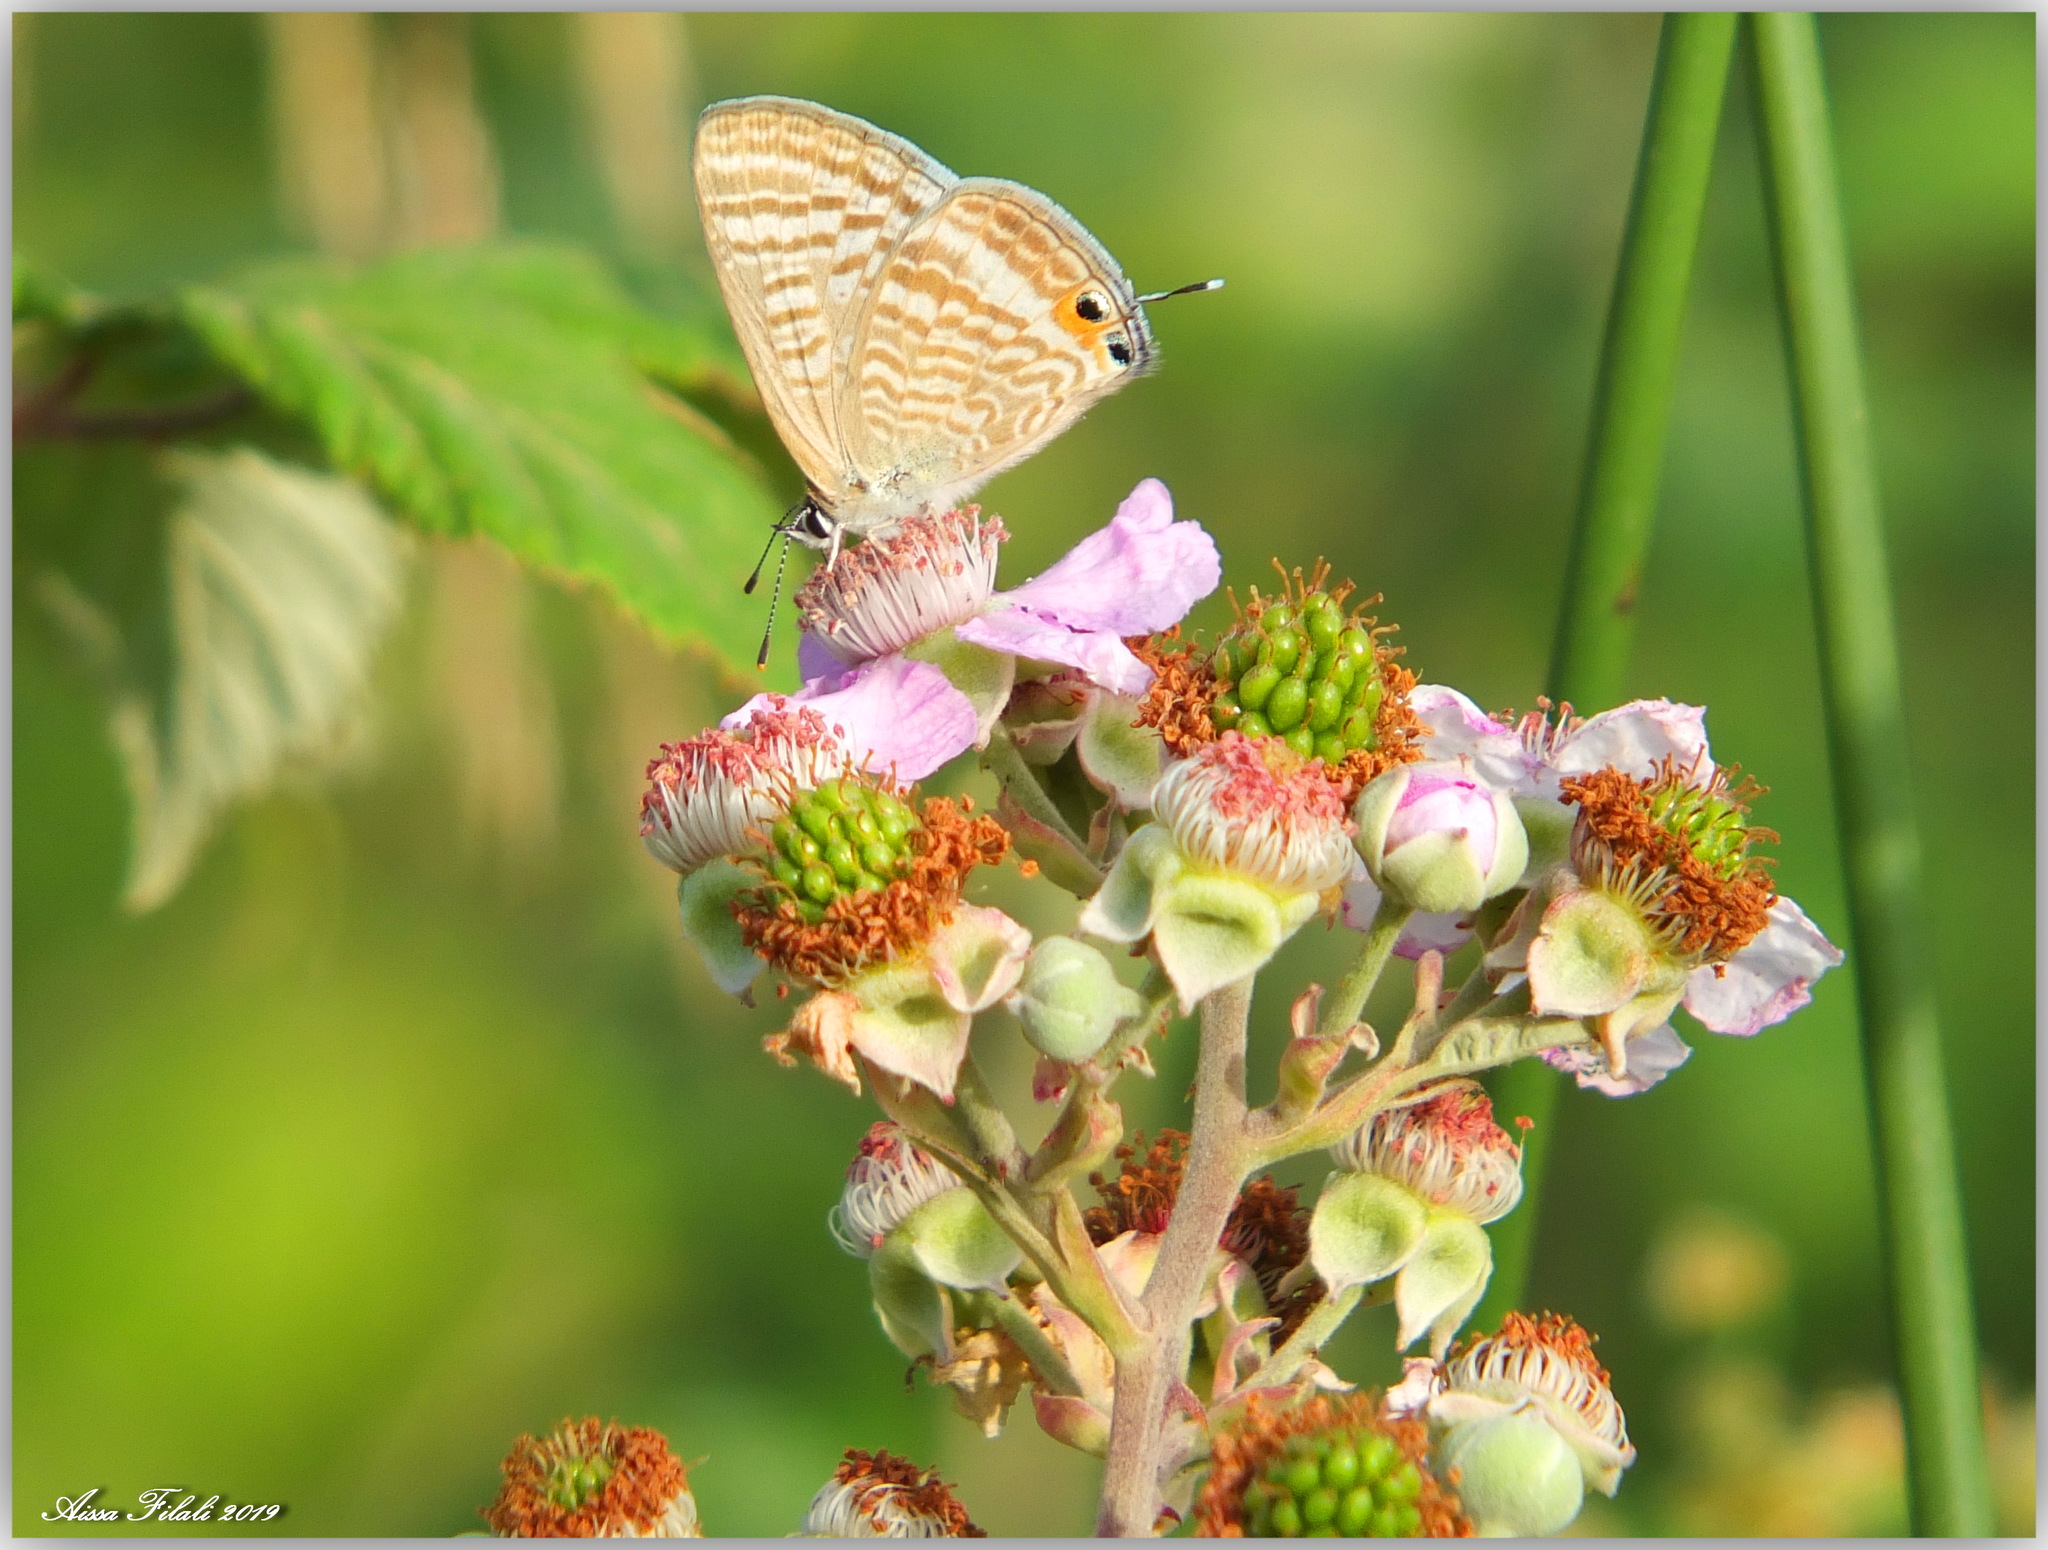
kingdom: Animalia
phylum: Arthropoda
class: Insecta
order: Lepidoptera
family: Lycaenidae
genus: Lampides
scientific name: Lampides boeticus
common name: Long-tailed blue
